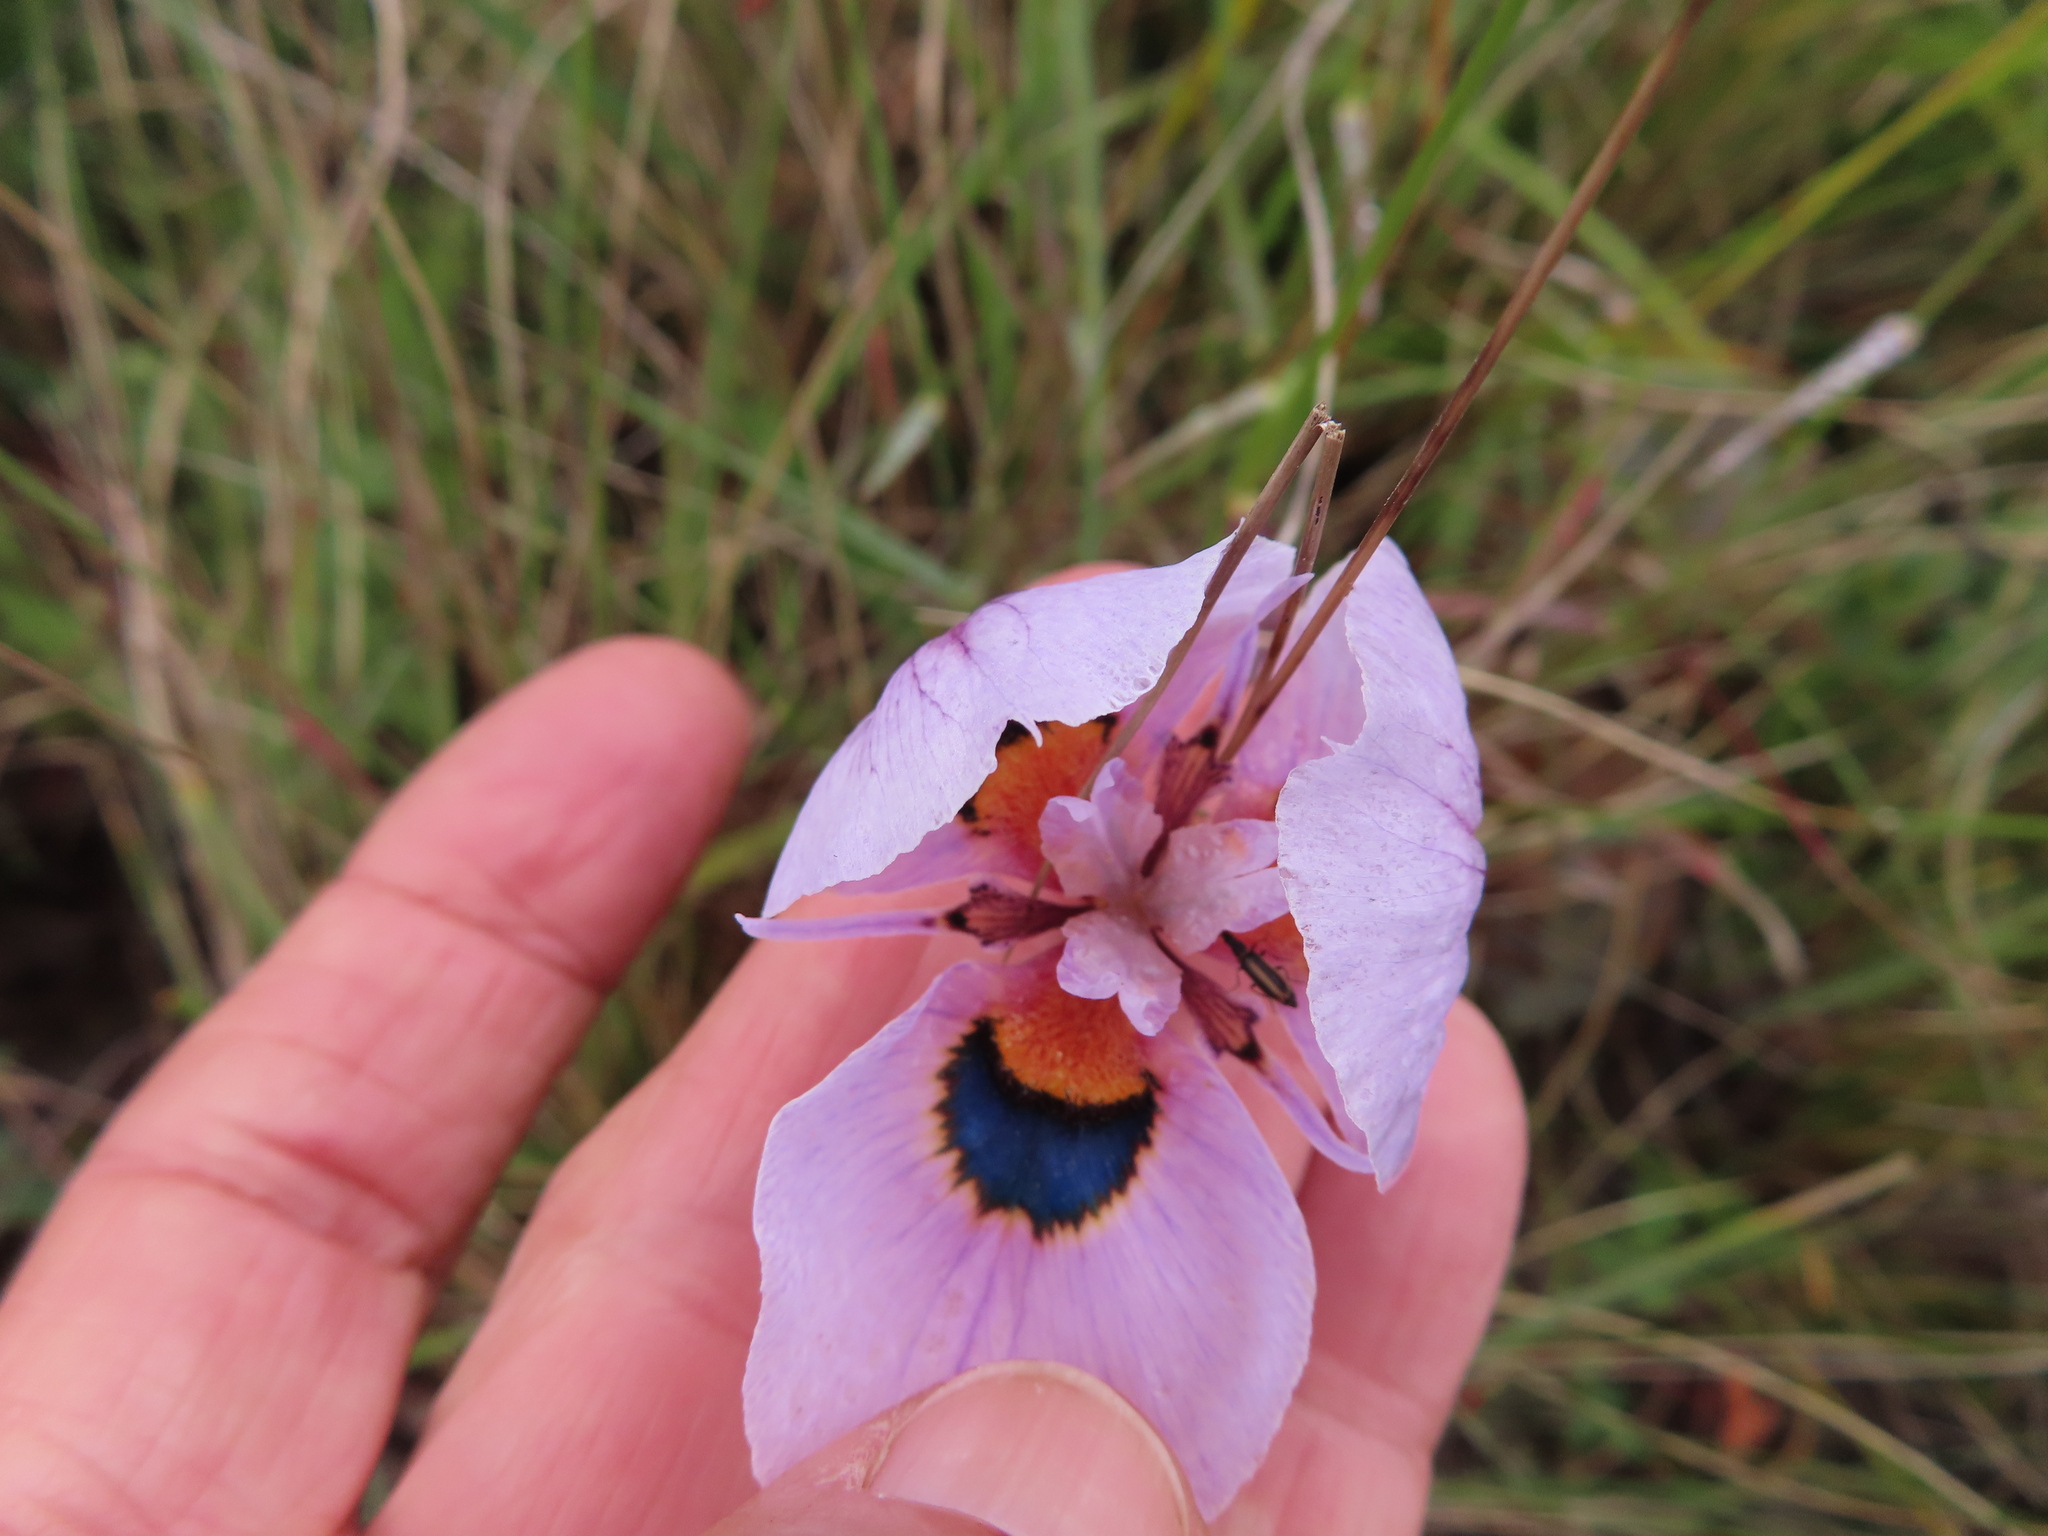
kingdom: Plantae
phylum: Tracheophyta
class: Liliopsida
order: Asparagales
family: Iridaceae
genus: Moraea
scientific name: Moraea villosa
